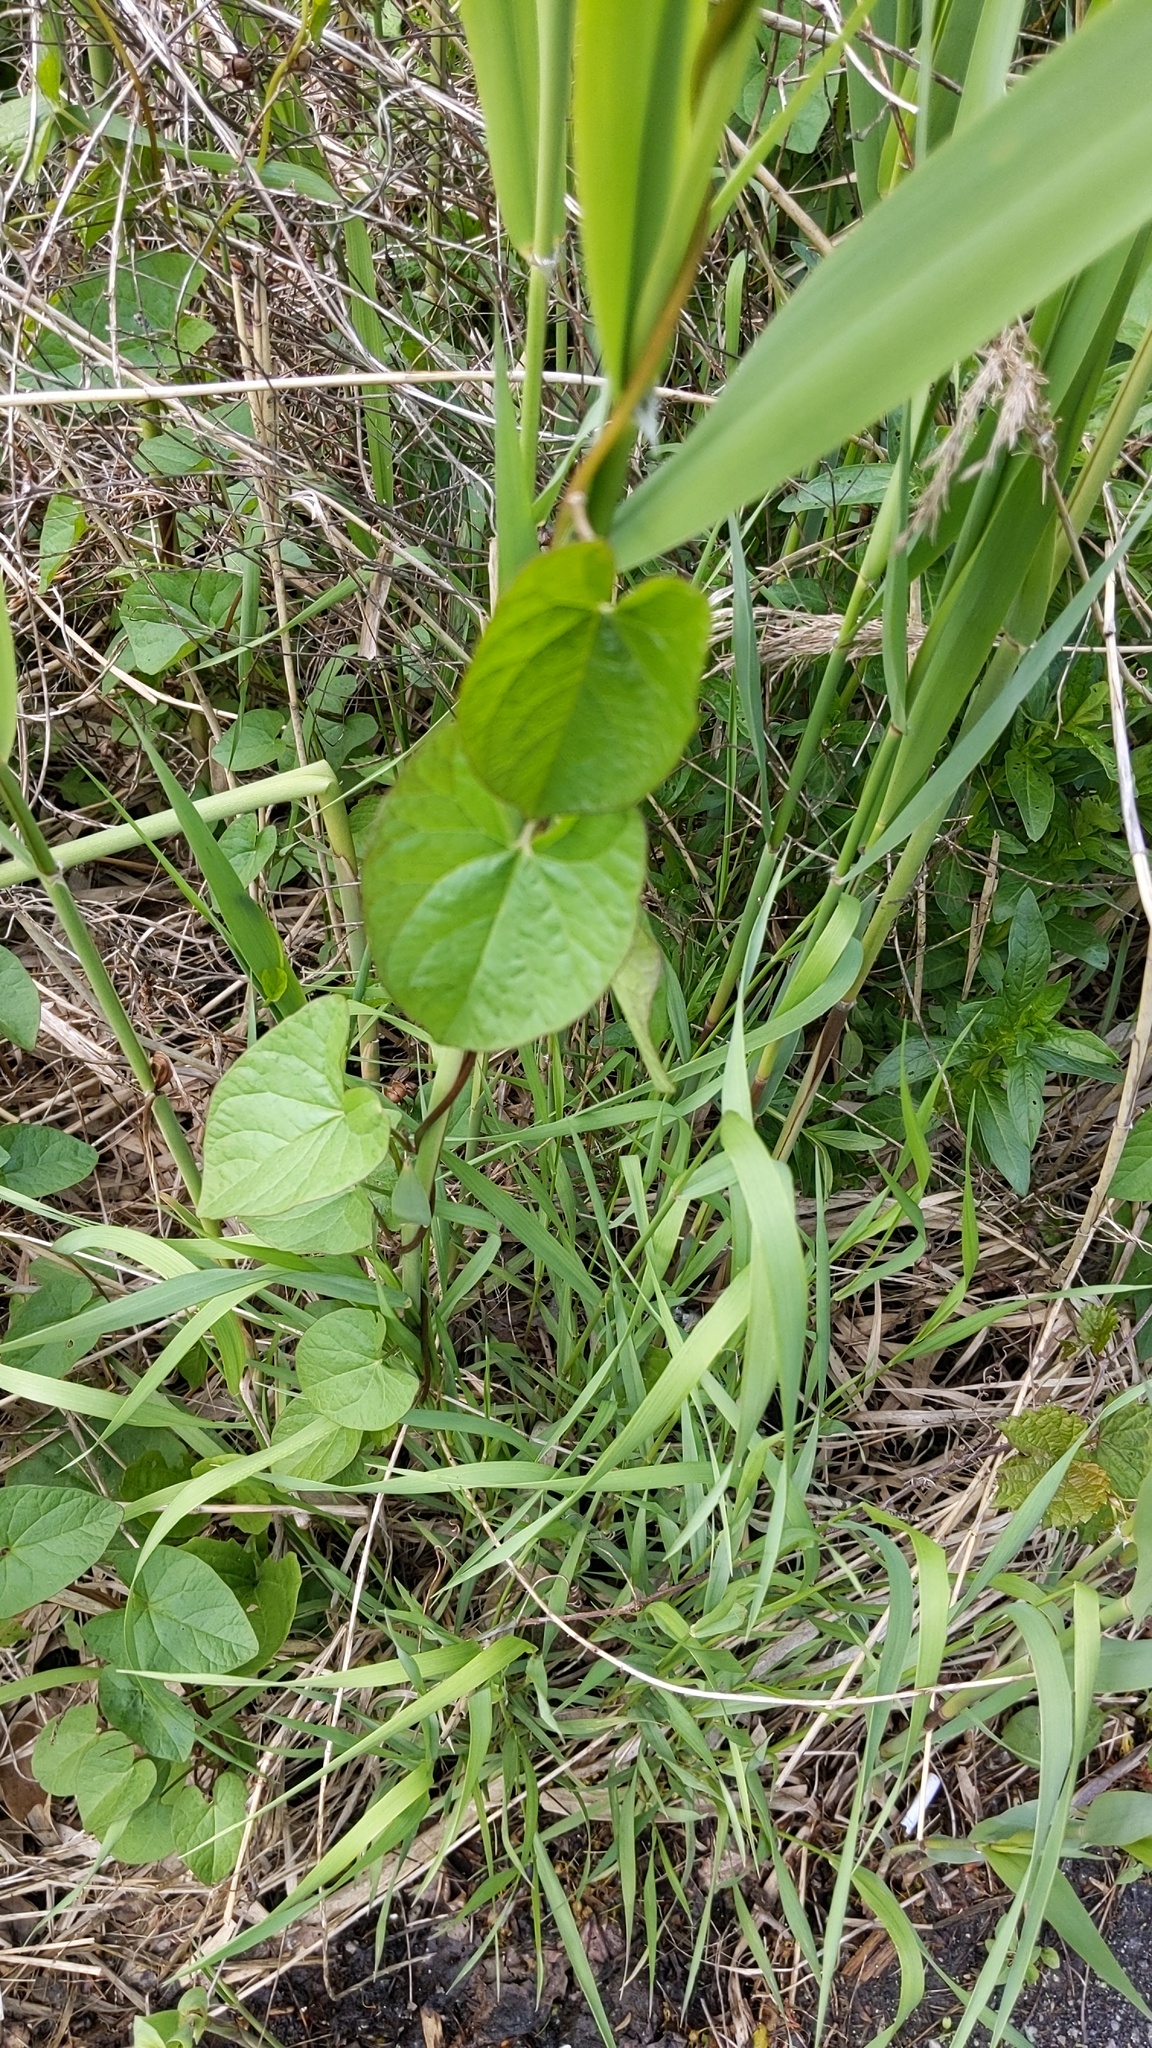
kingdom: Plantae
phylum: Tracheophyta
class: Magnoliopsida
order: Solanales
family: Convolvulaceae
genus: Calystegia
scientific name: Calystegia sepium
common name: Hedge bindweed
